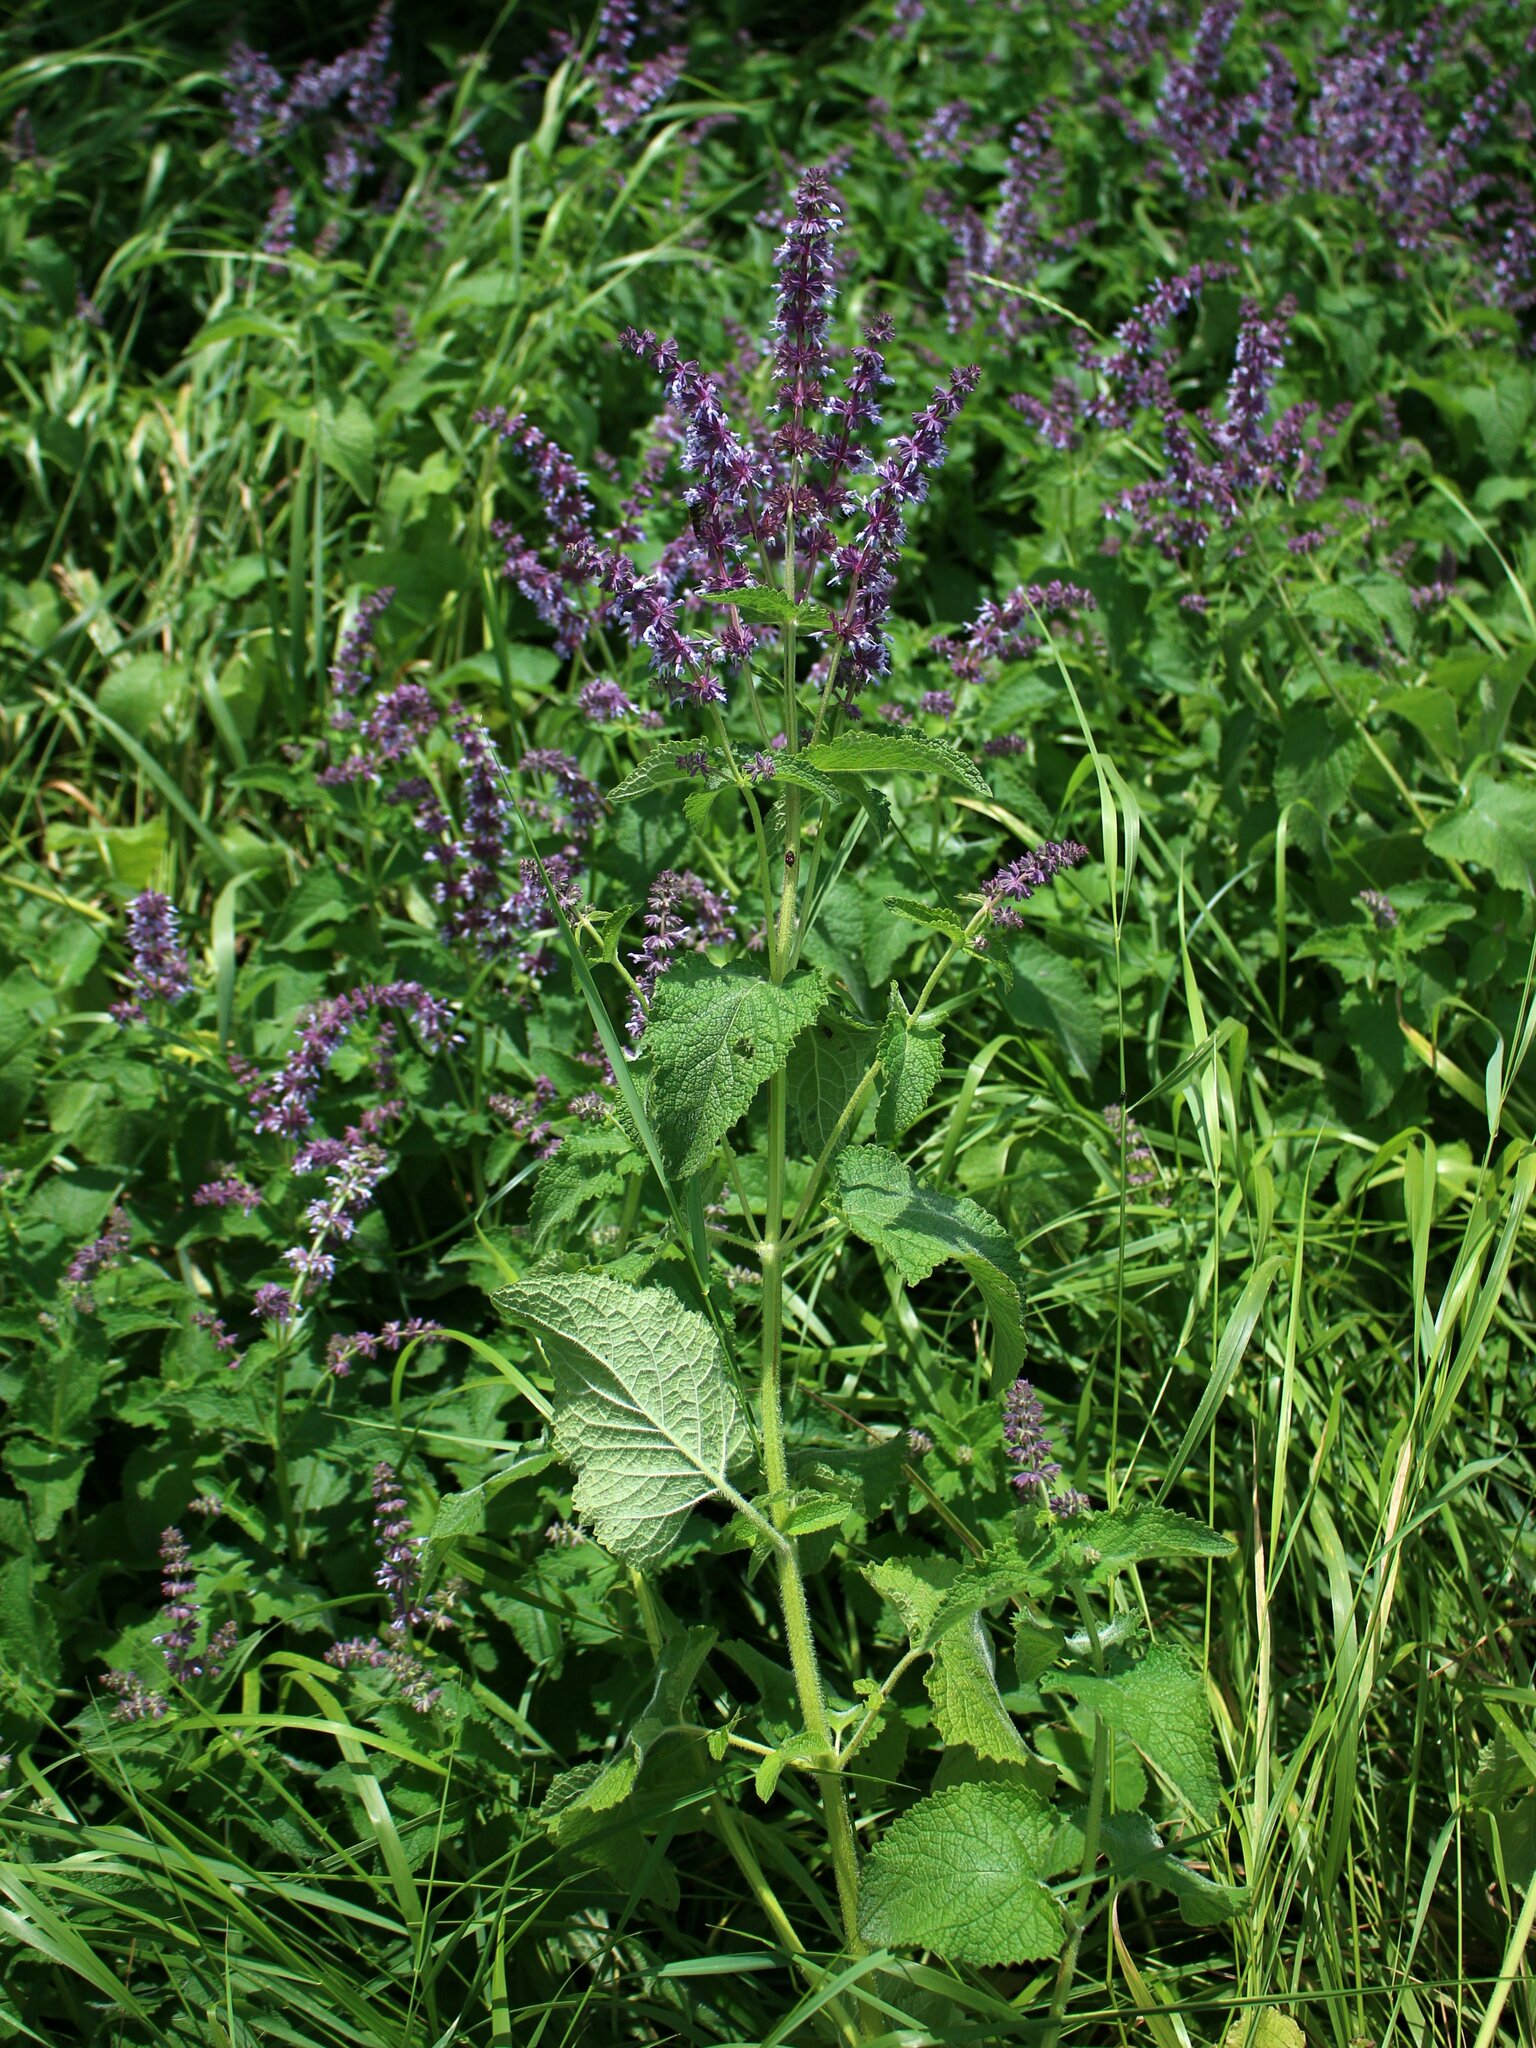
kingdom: Plantae
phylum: Tracheophyta
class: Magnoliopsida
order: Lamiales
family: Lamiaceae
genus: Salvia
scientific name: Salvia verticillata
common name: Whorled clary
